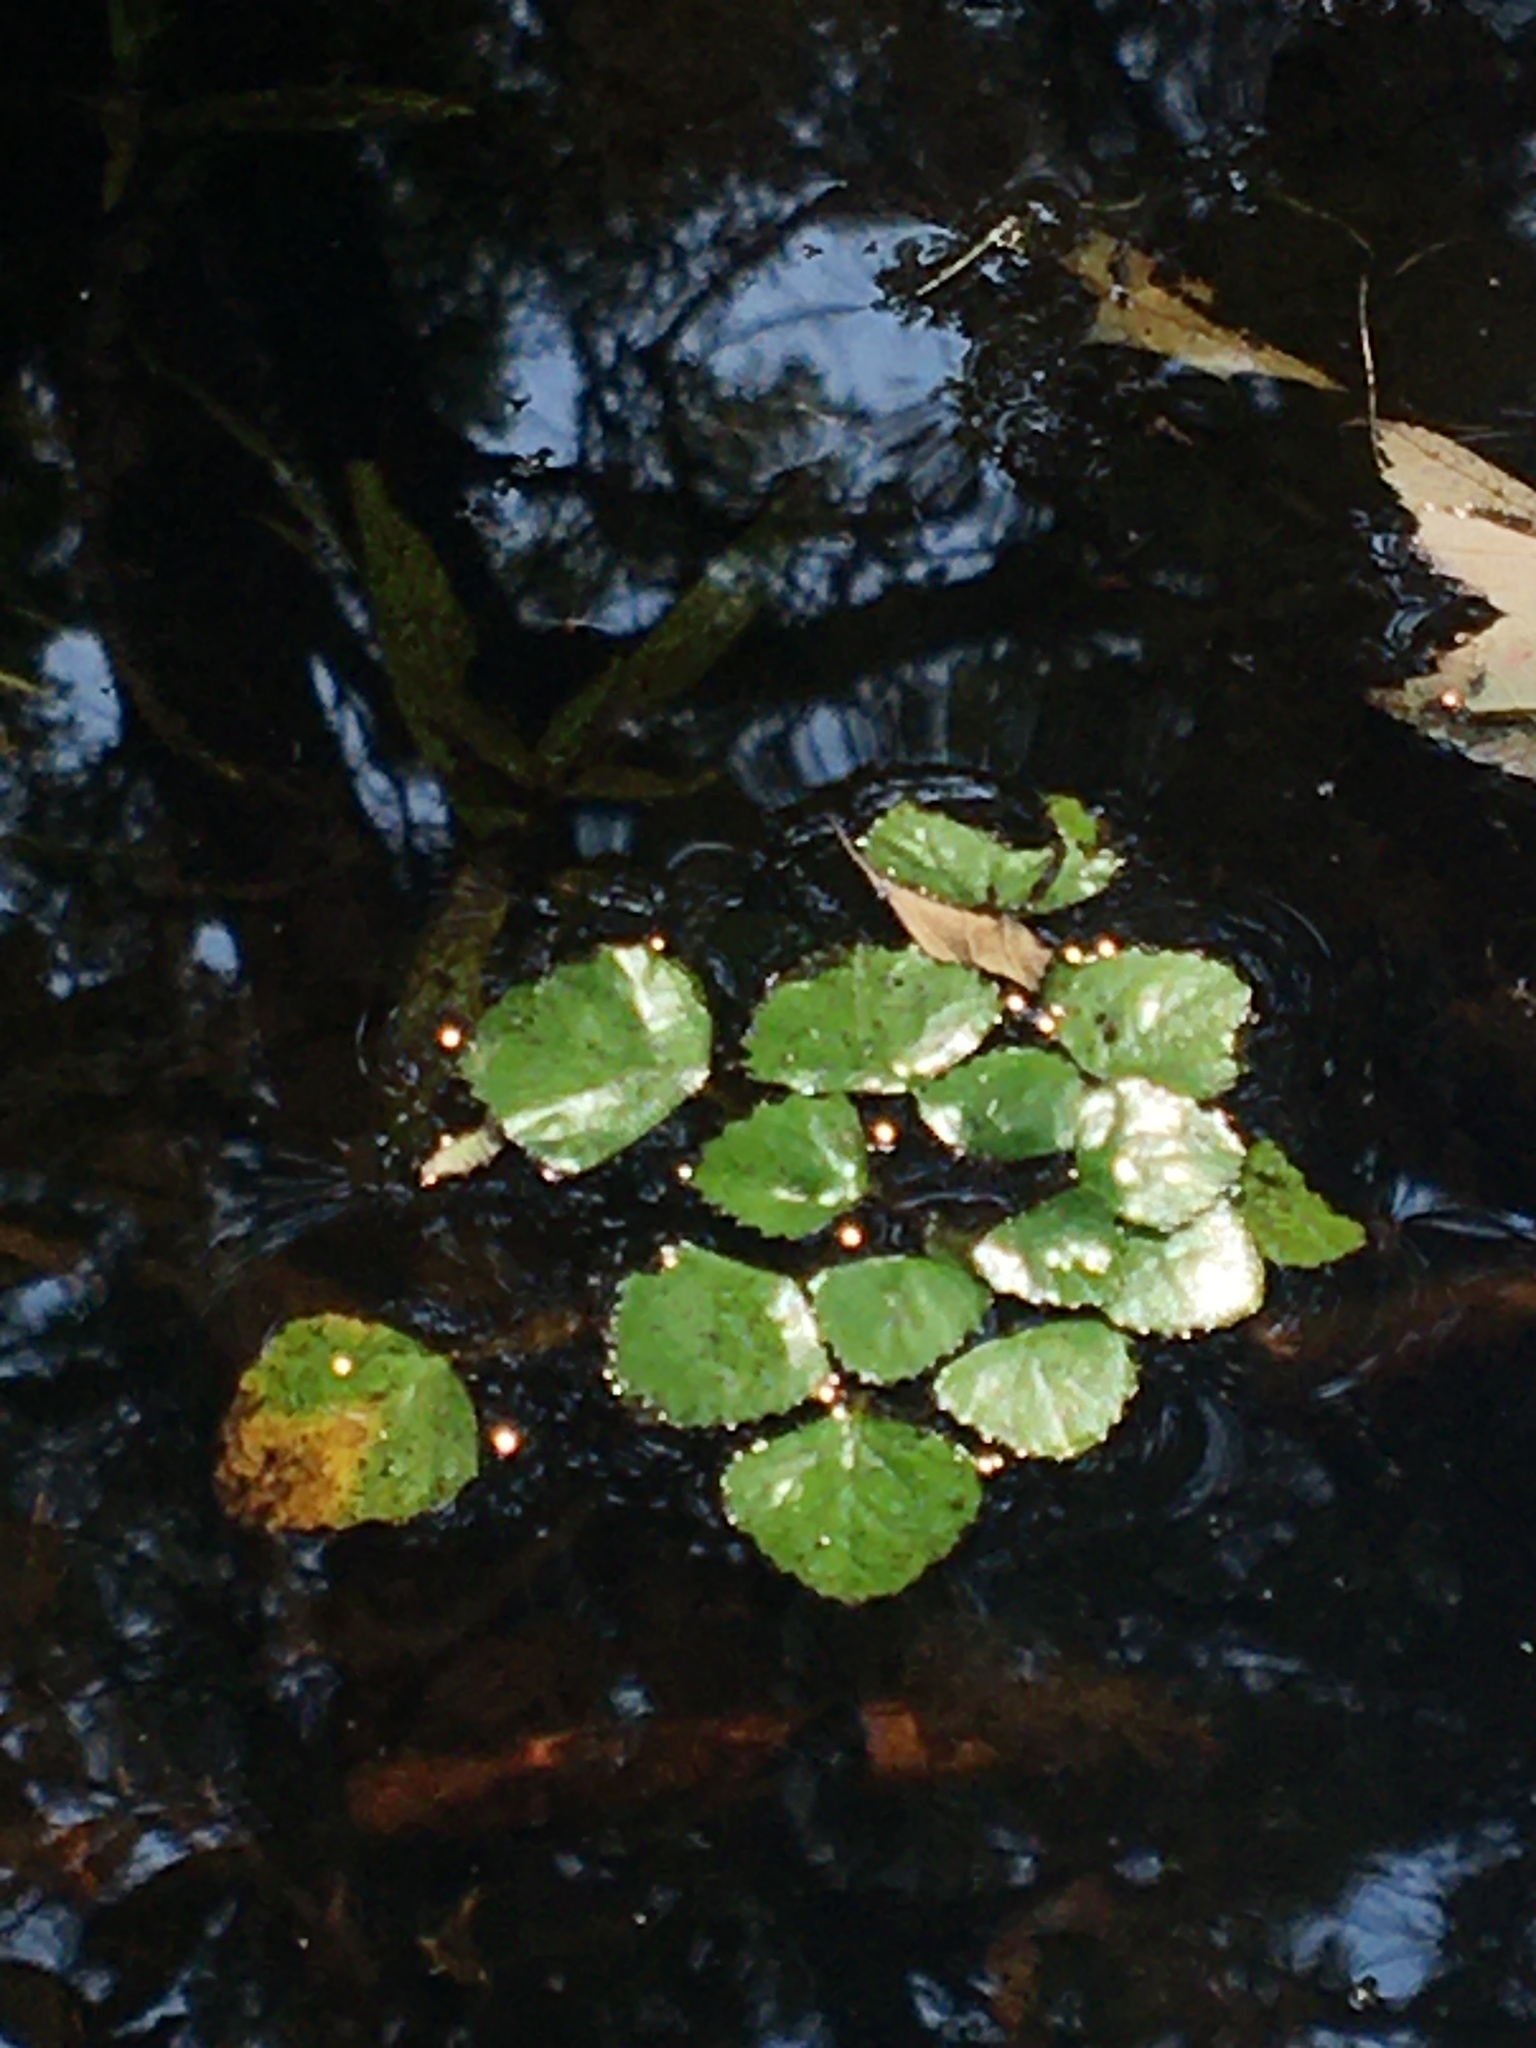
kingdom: Plantae
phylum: Tracheophyta
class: Magnoliopsida
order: Myrtales
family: Lythraceae
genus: Trapa
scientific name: Trapa natans
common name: Water chestnut
